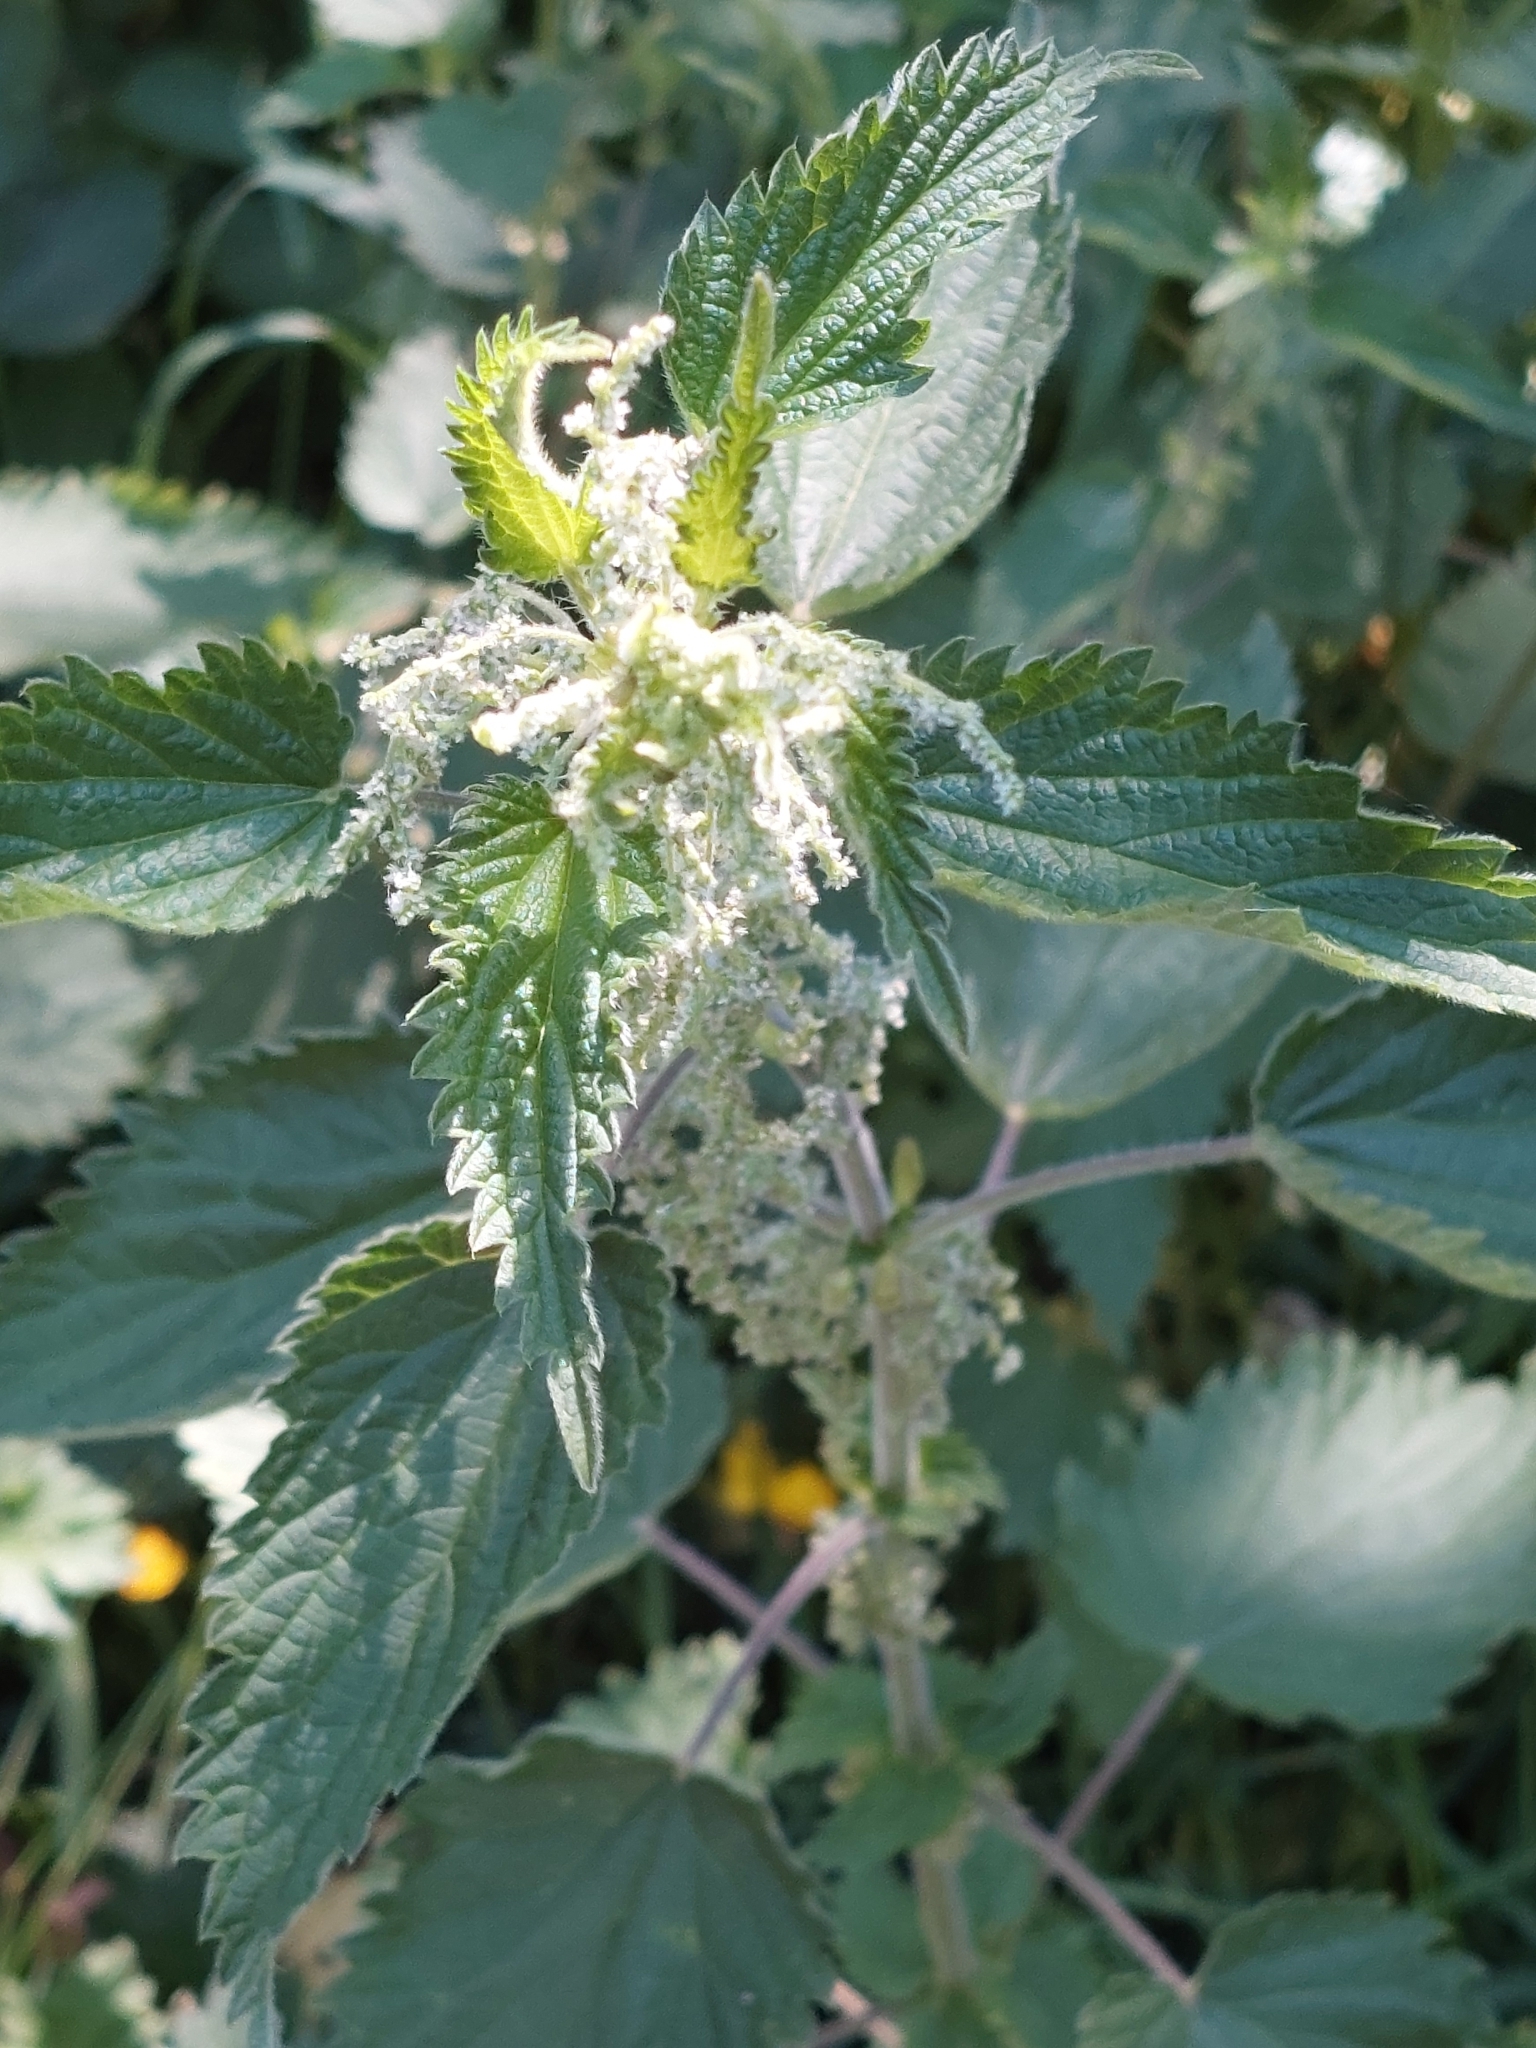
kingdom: Plantae
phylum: Tracheophyta
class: Magnoliopsida
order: Rosales
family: Urticaceae
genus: Urtica
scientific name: Urtica dioica
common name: Common nettle
